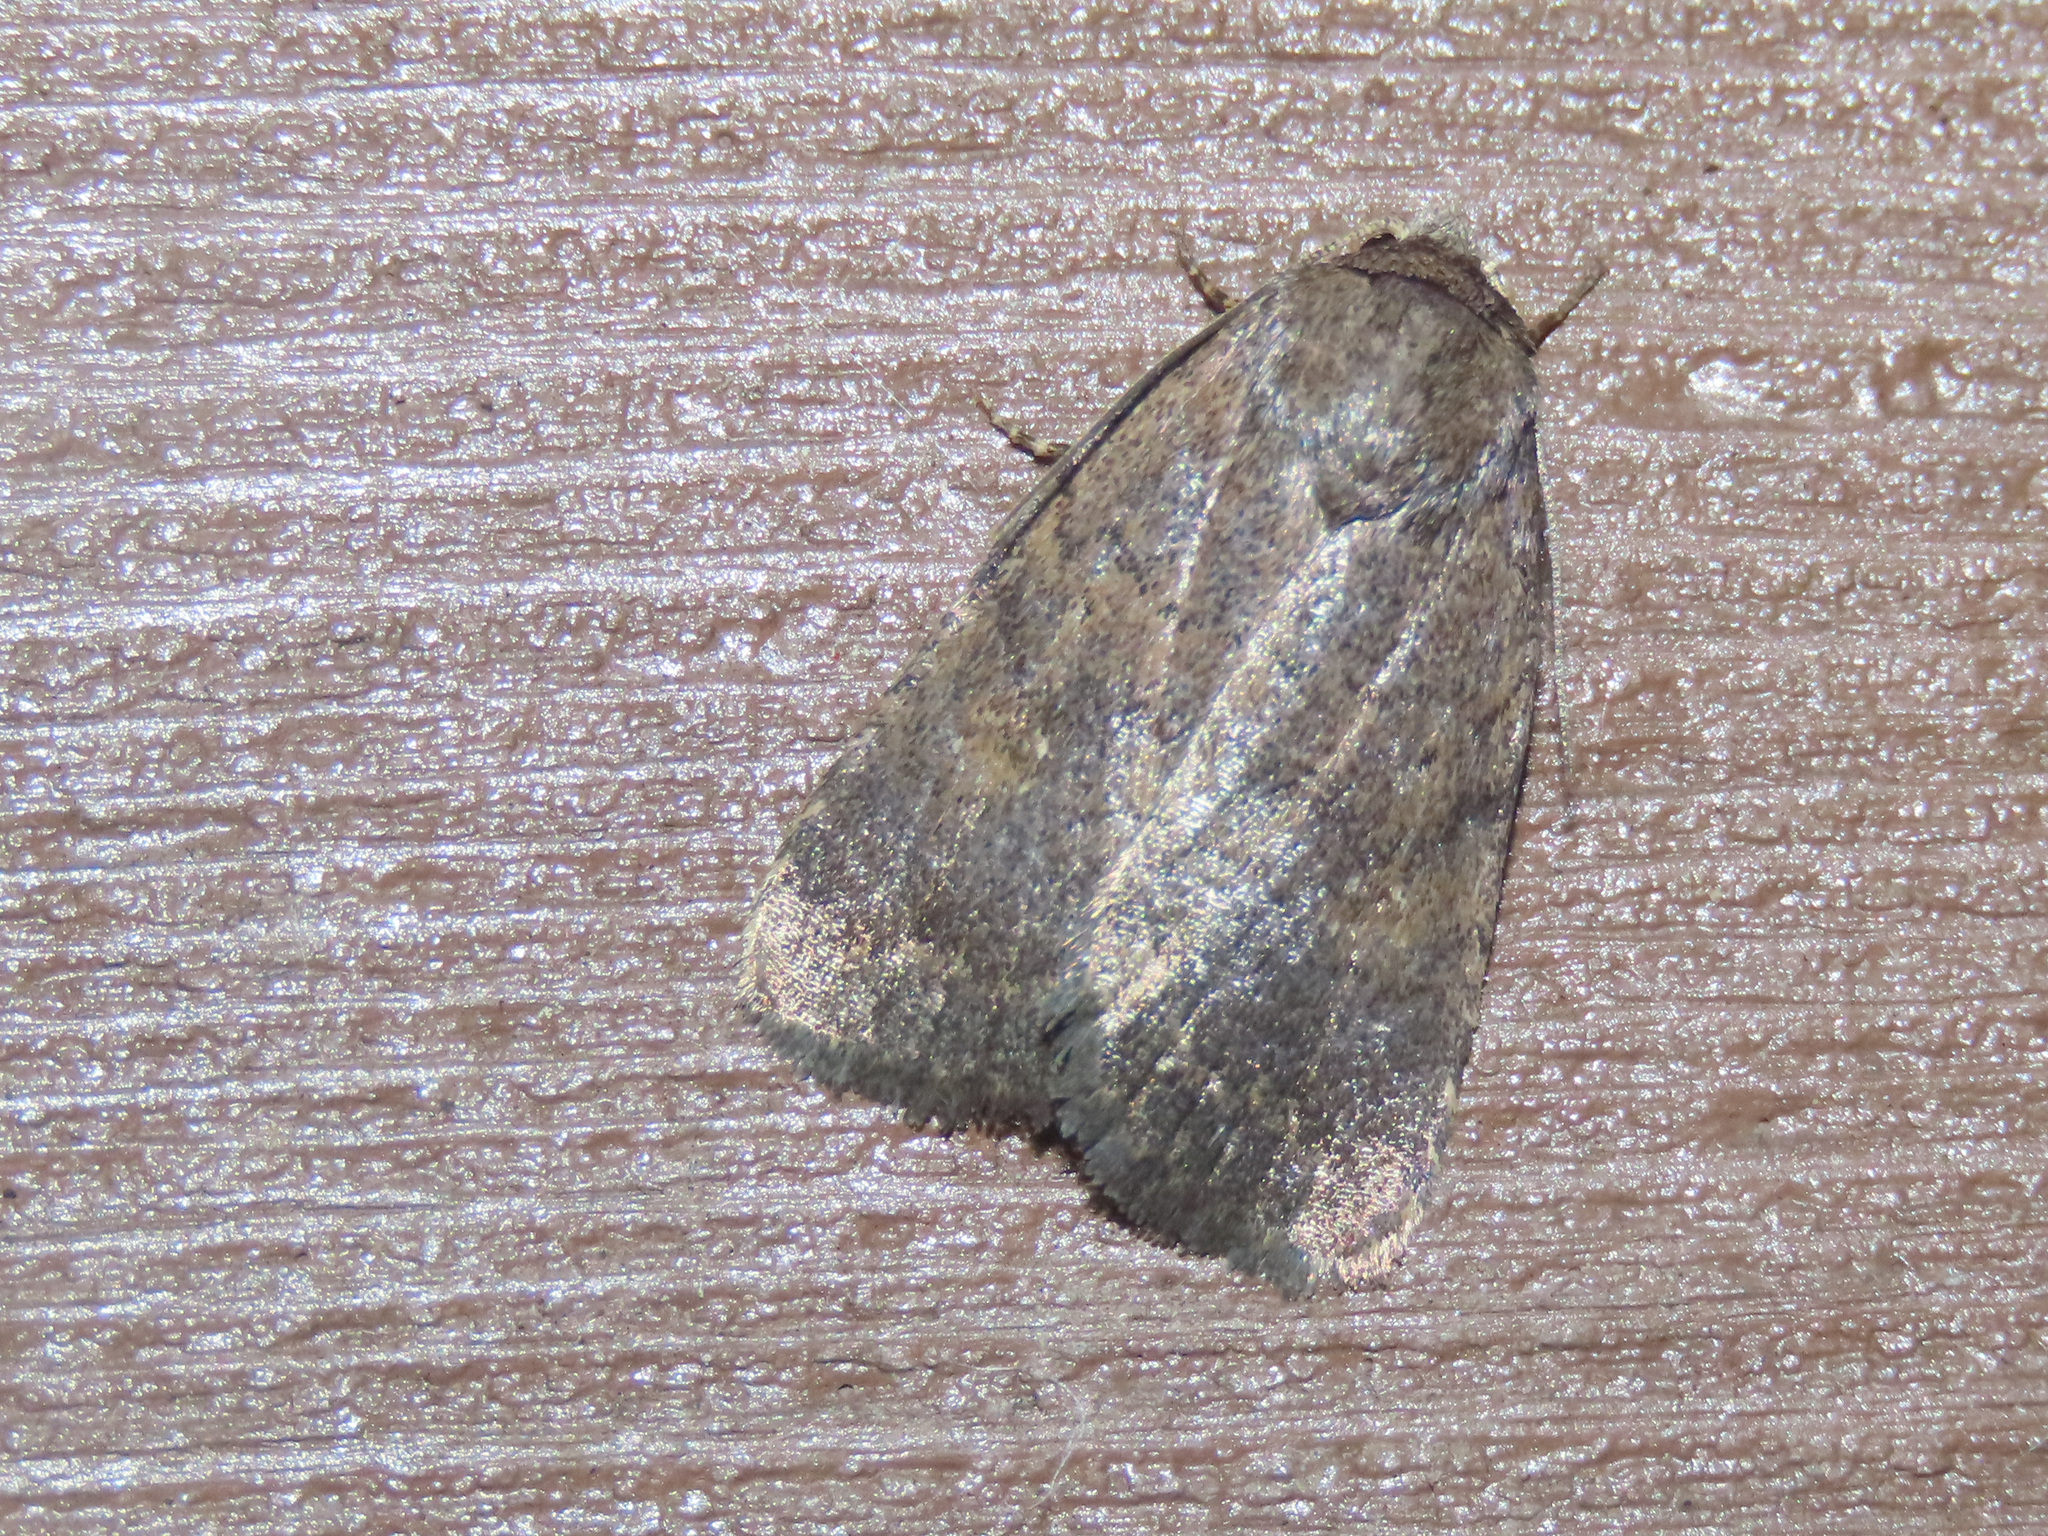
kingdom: Animalia
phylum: Arthropoda
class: Insecta
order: Lepidoptera
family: Noctuidae
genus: Athetis
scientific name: Athetis tarda
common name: Slowpoke moth
